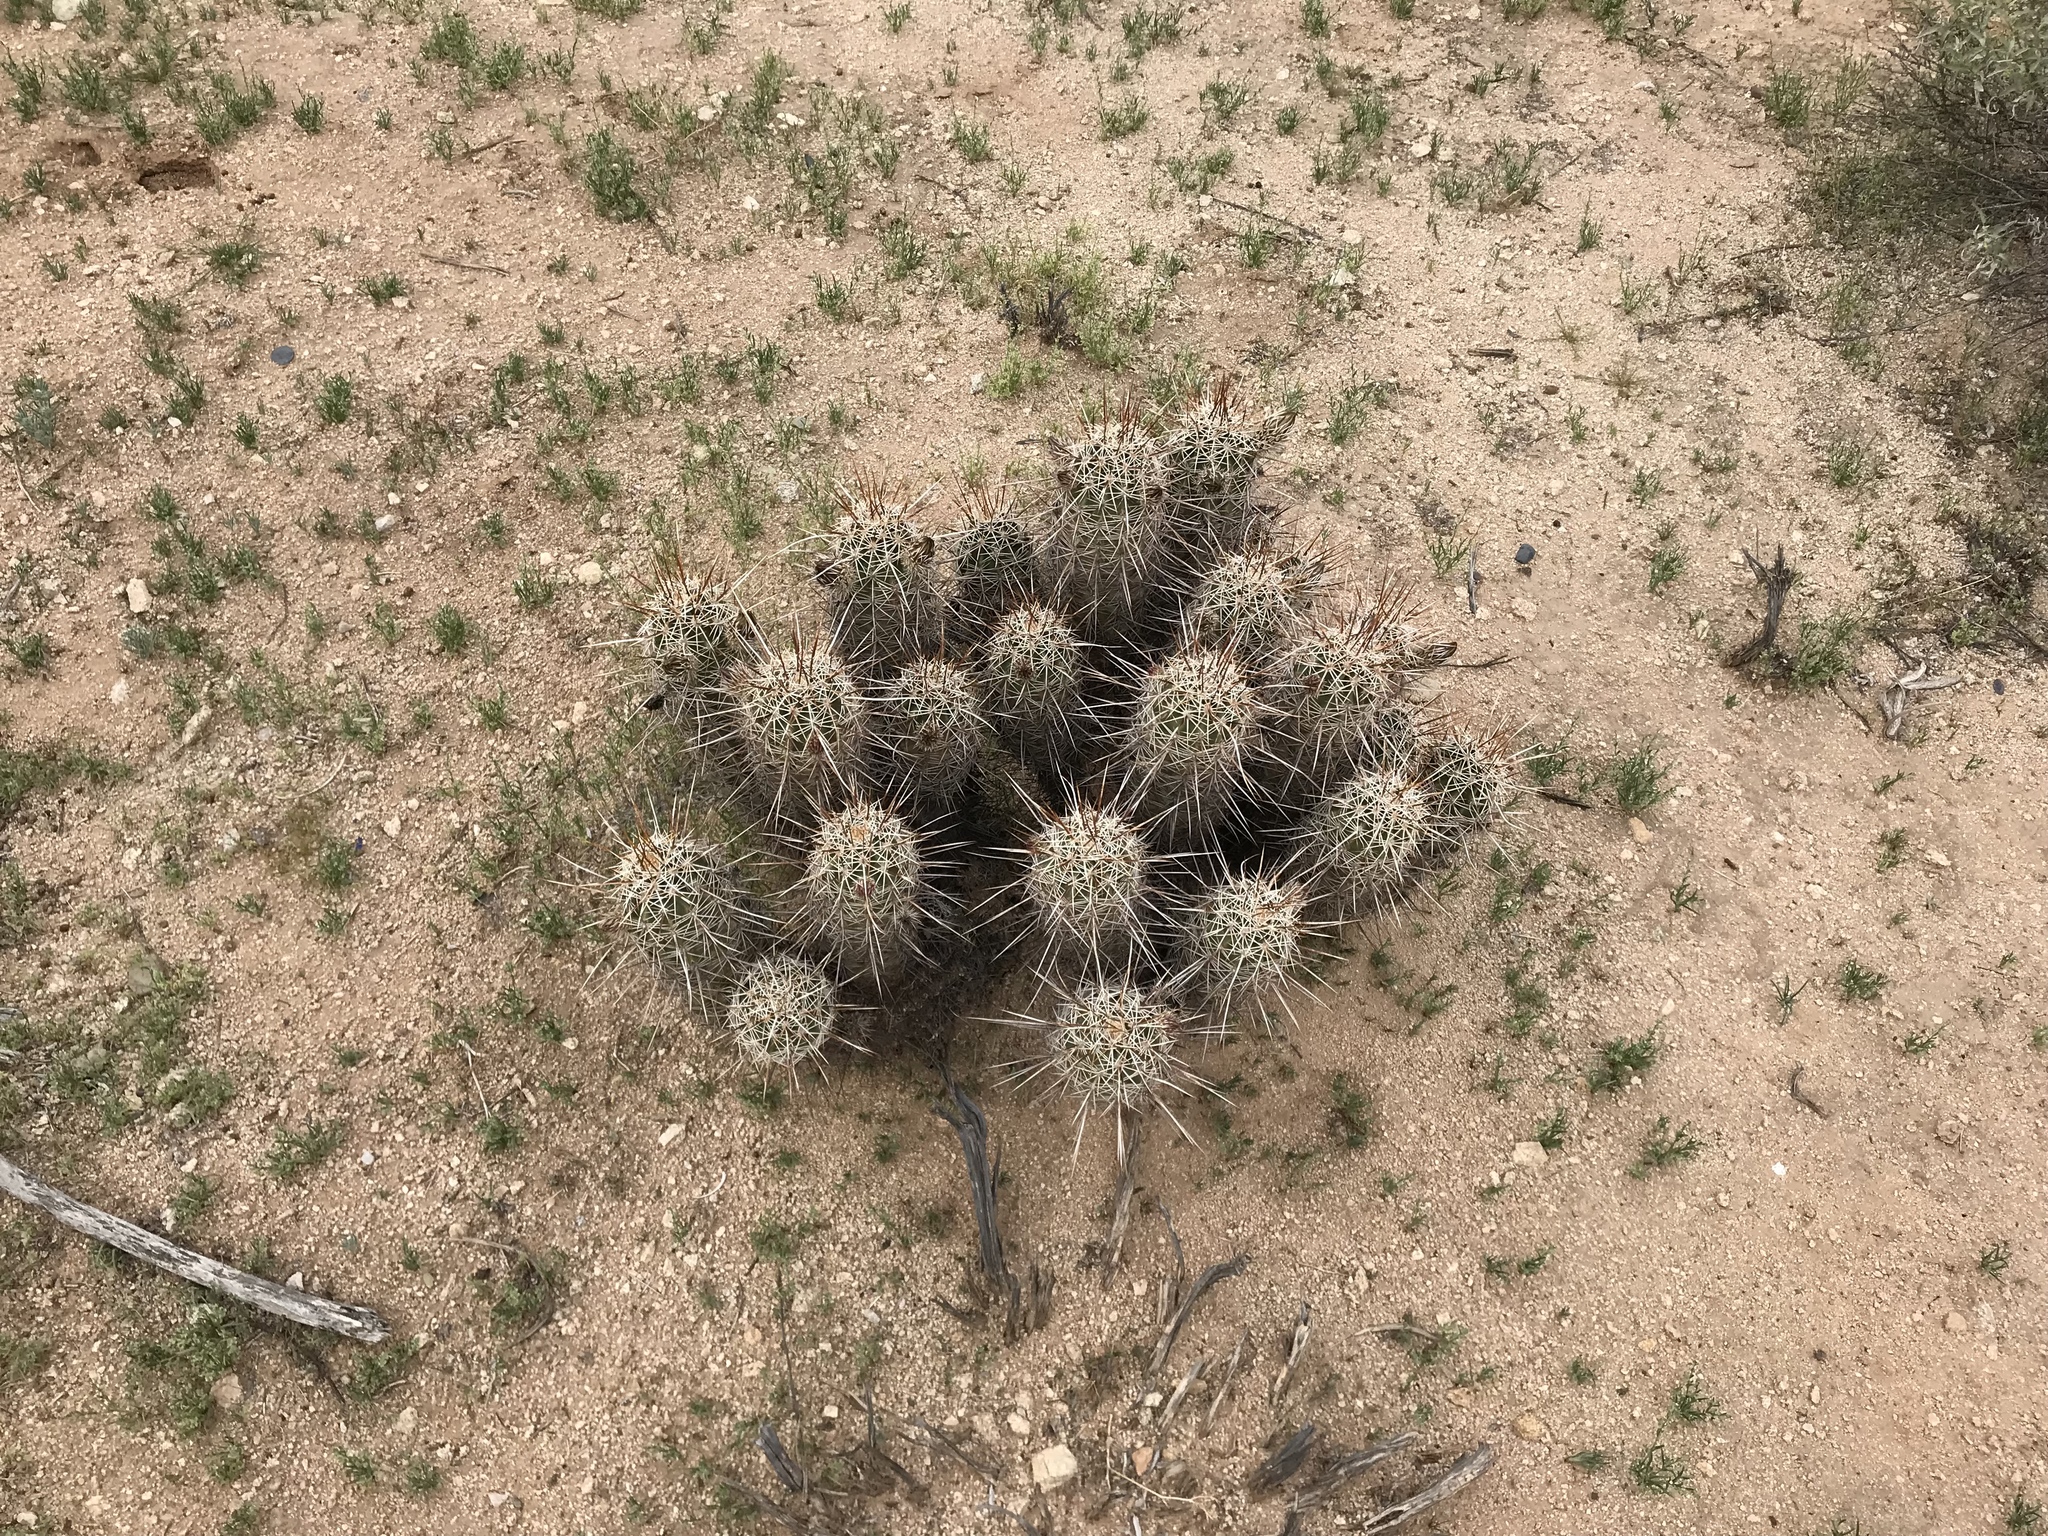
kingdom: Plantae
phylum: Tracheophyta
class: Magnoliopsida
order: Caryophyllales
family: Cactaceae
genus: Echinocereus
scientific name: Echinocereus fasciculatus
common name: Bundle hedgehog
